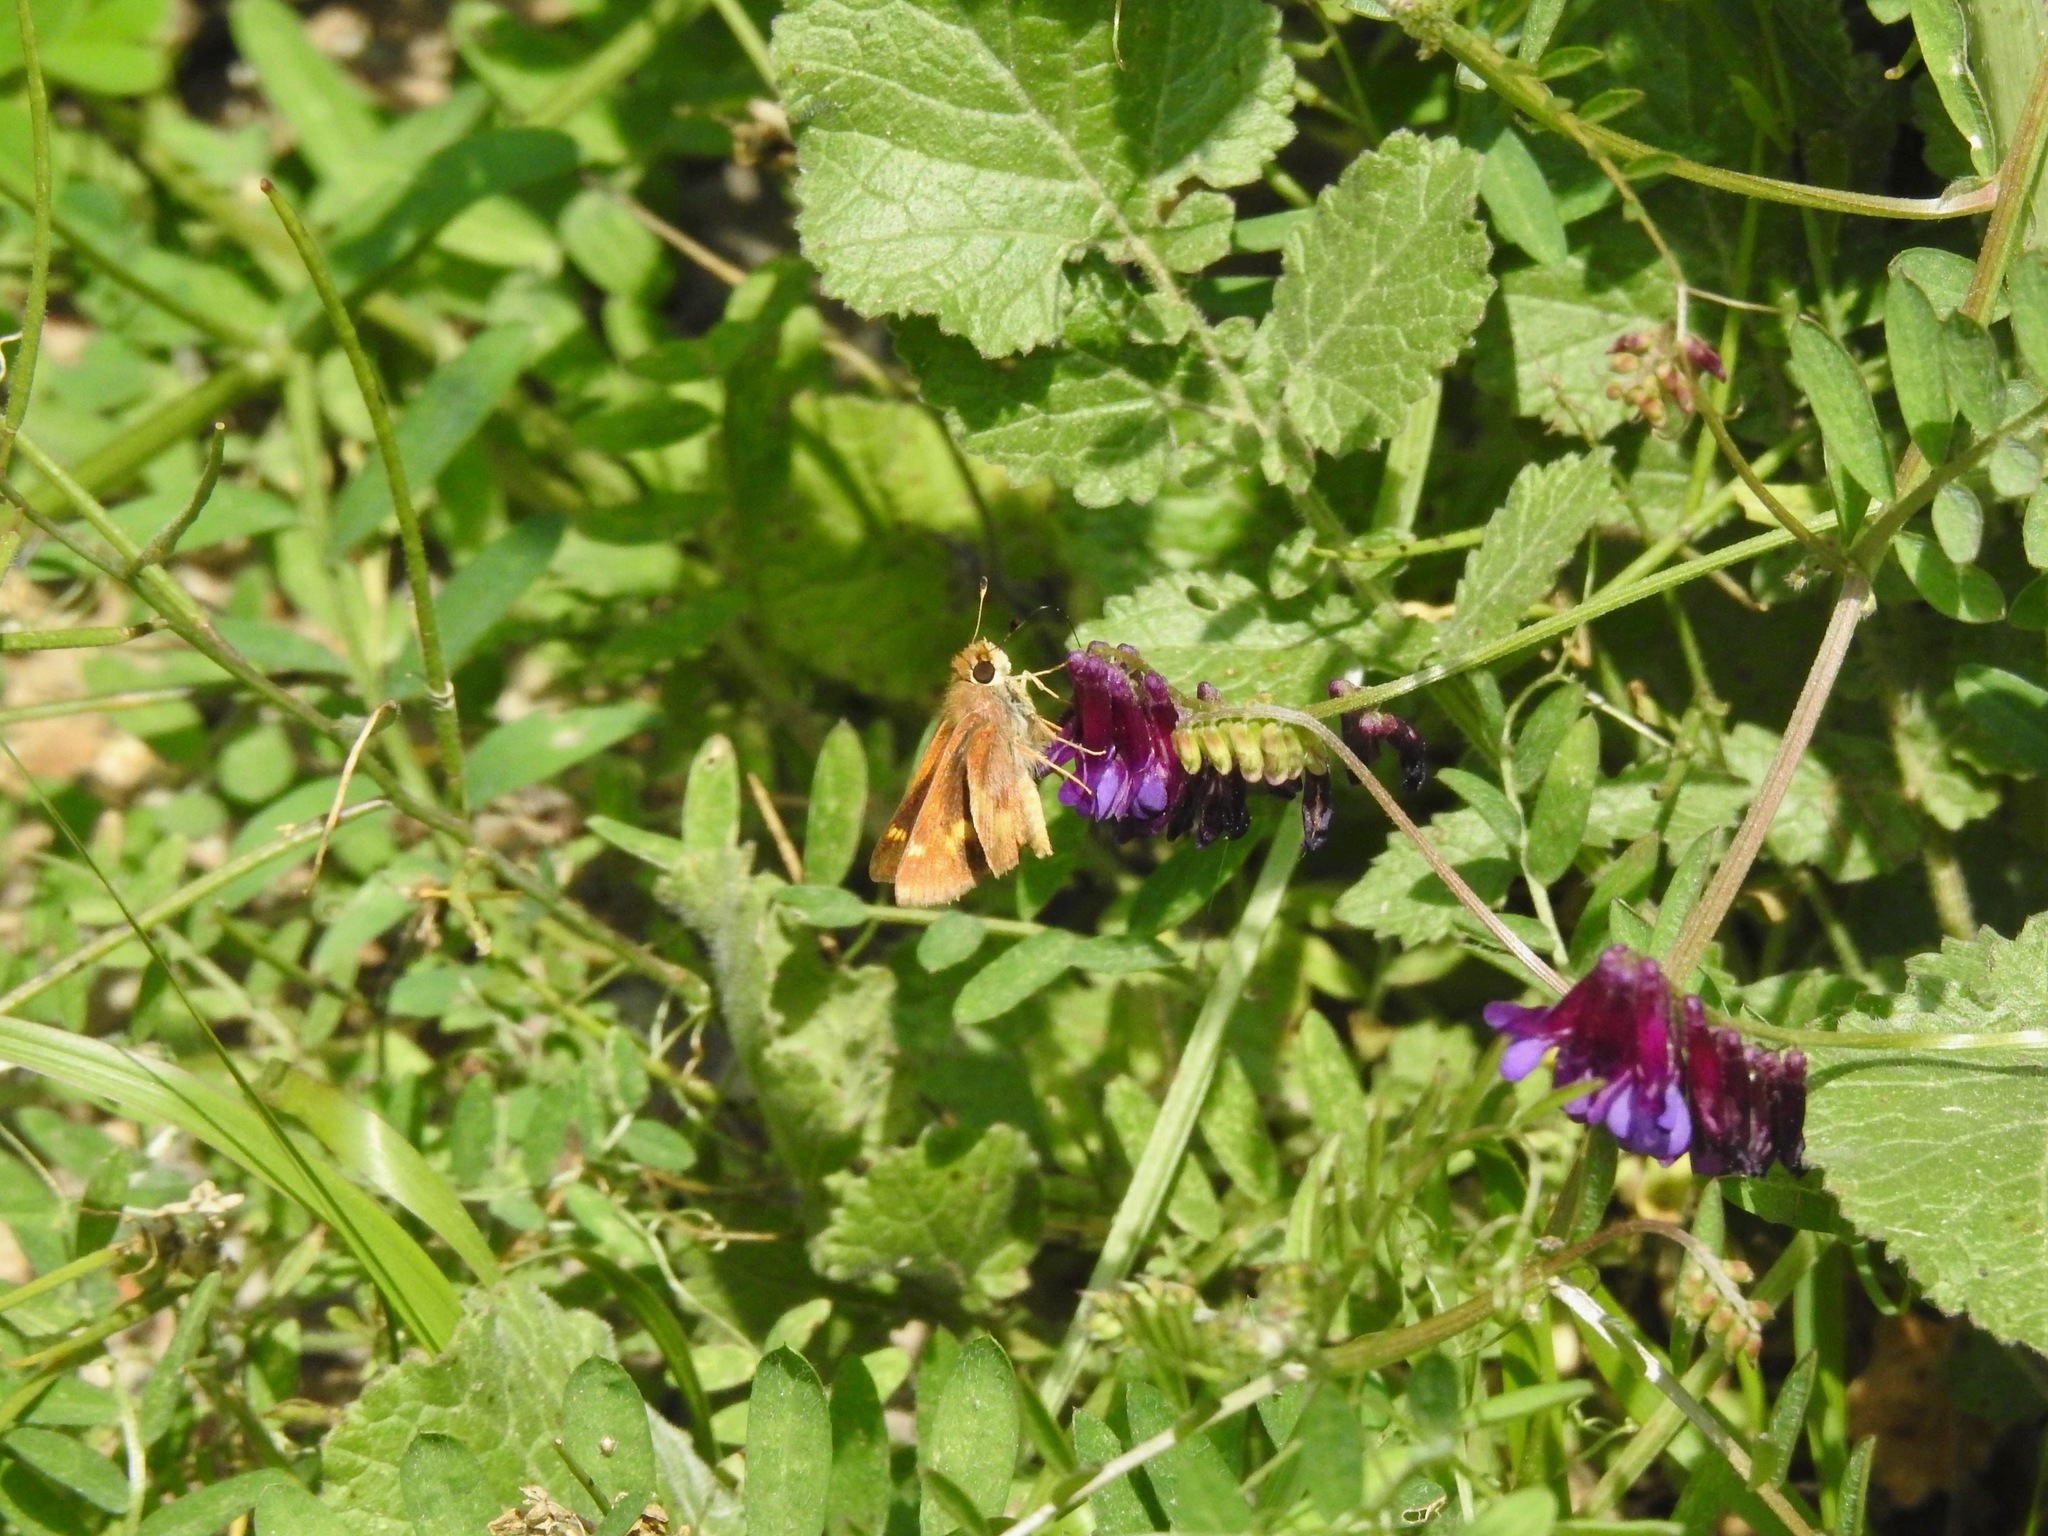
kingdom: Animalia
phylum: Arthropoda
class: Insecta
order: Lepidoptera
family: Hesperiidae
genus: Lon
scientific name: Lon melane
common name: Umber skipper
